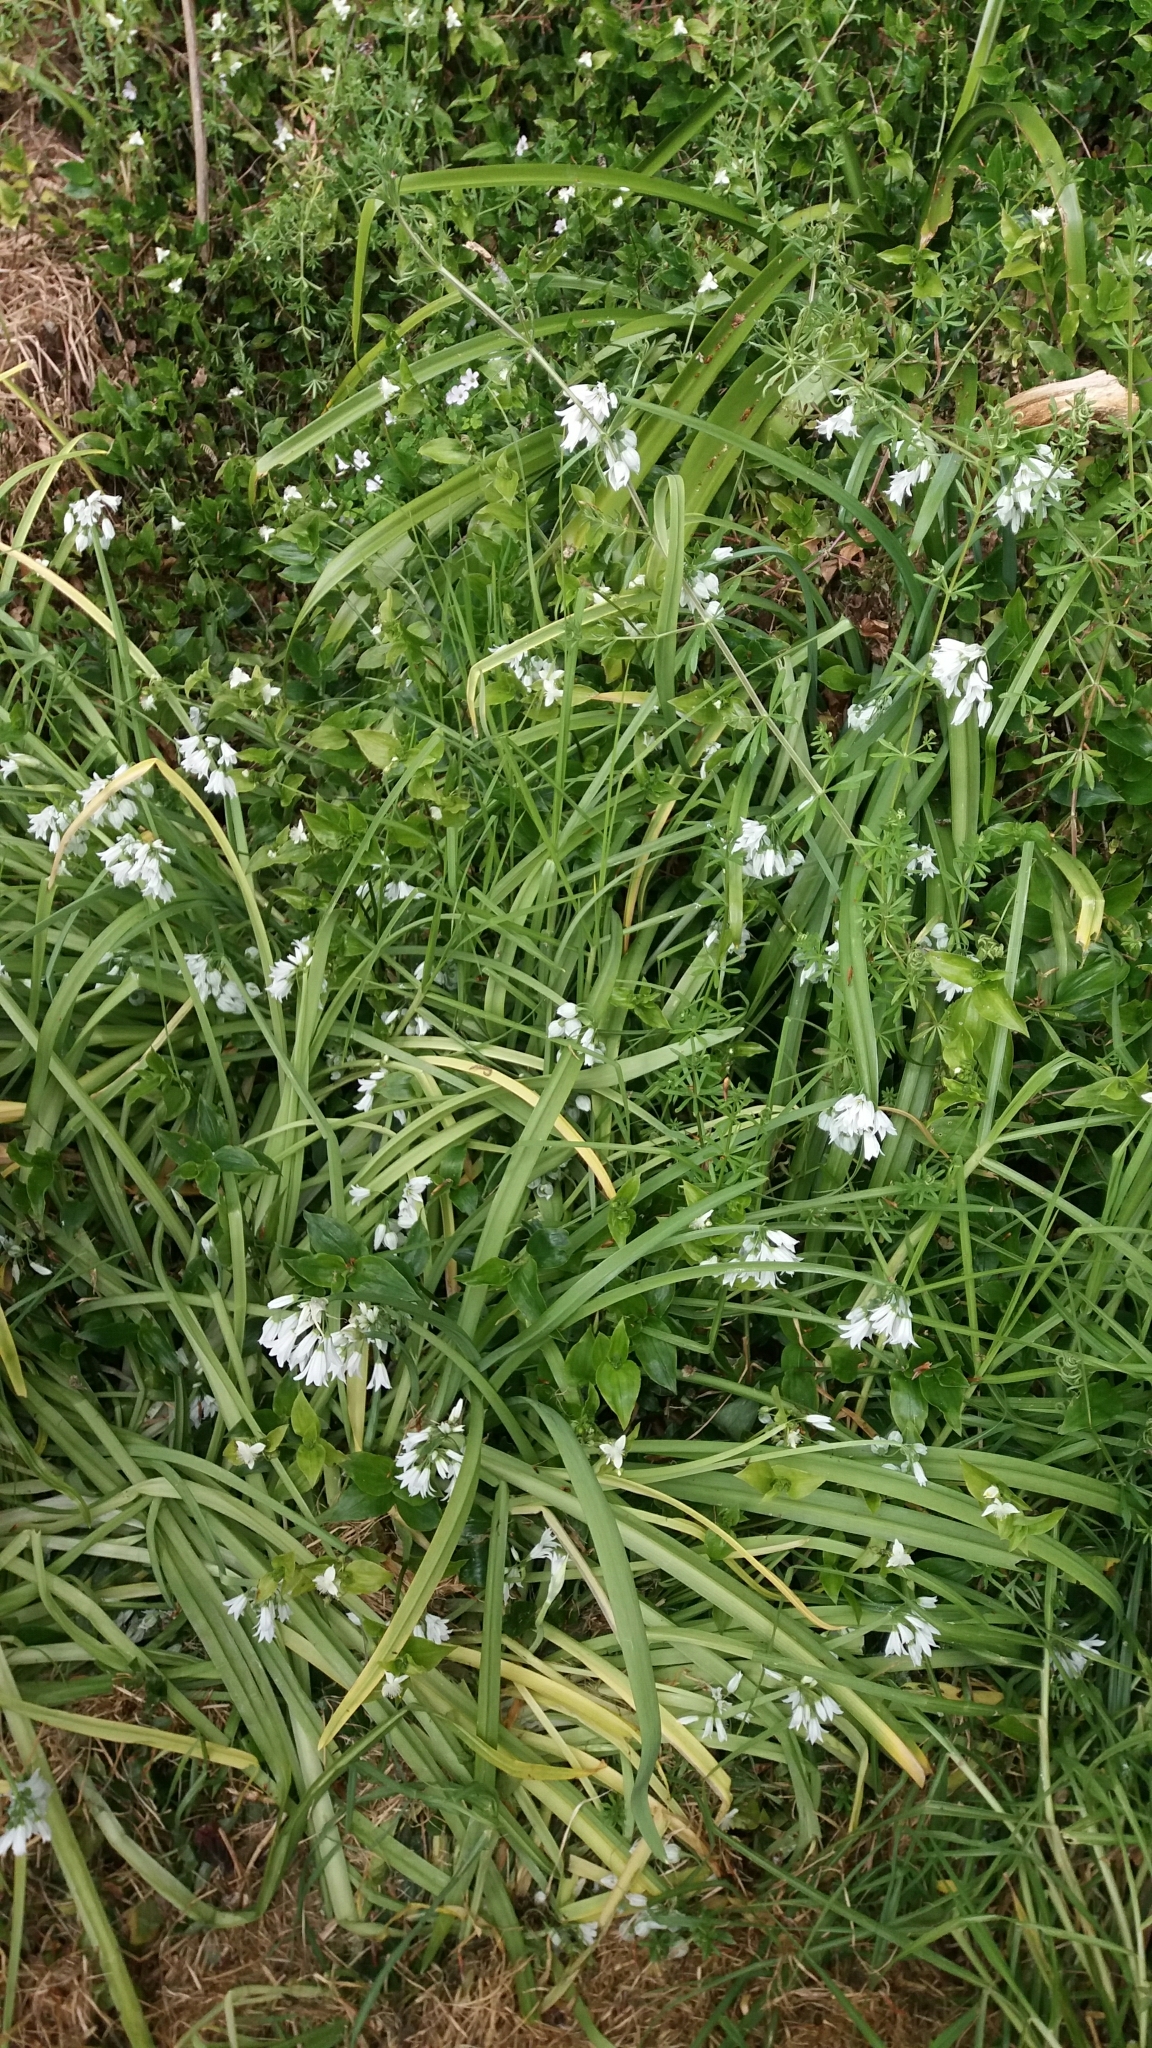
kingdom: Plantae
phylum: Tracheophyta
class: Liliopsida
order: Asparagales
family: Amaryllidaceae
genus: Allium
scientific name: Allium triquetrum
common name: Three-cornered garlic
